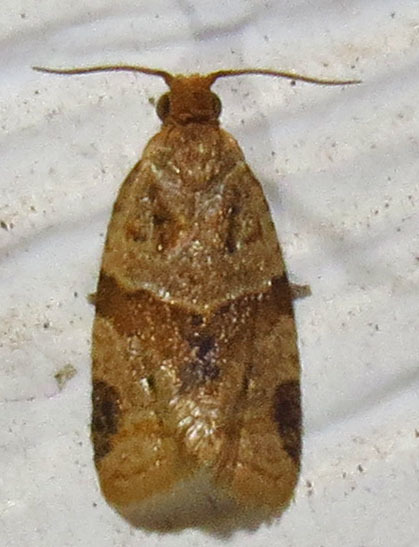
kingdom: Animalia
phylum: Arthropoda
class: Insecta
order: Lepidoptera
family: Tortricidae
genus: Clepsis
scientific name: Clepsis peritana
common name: Garden tortrix
